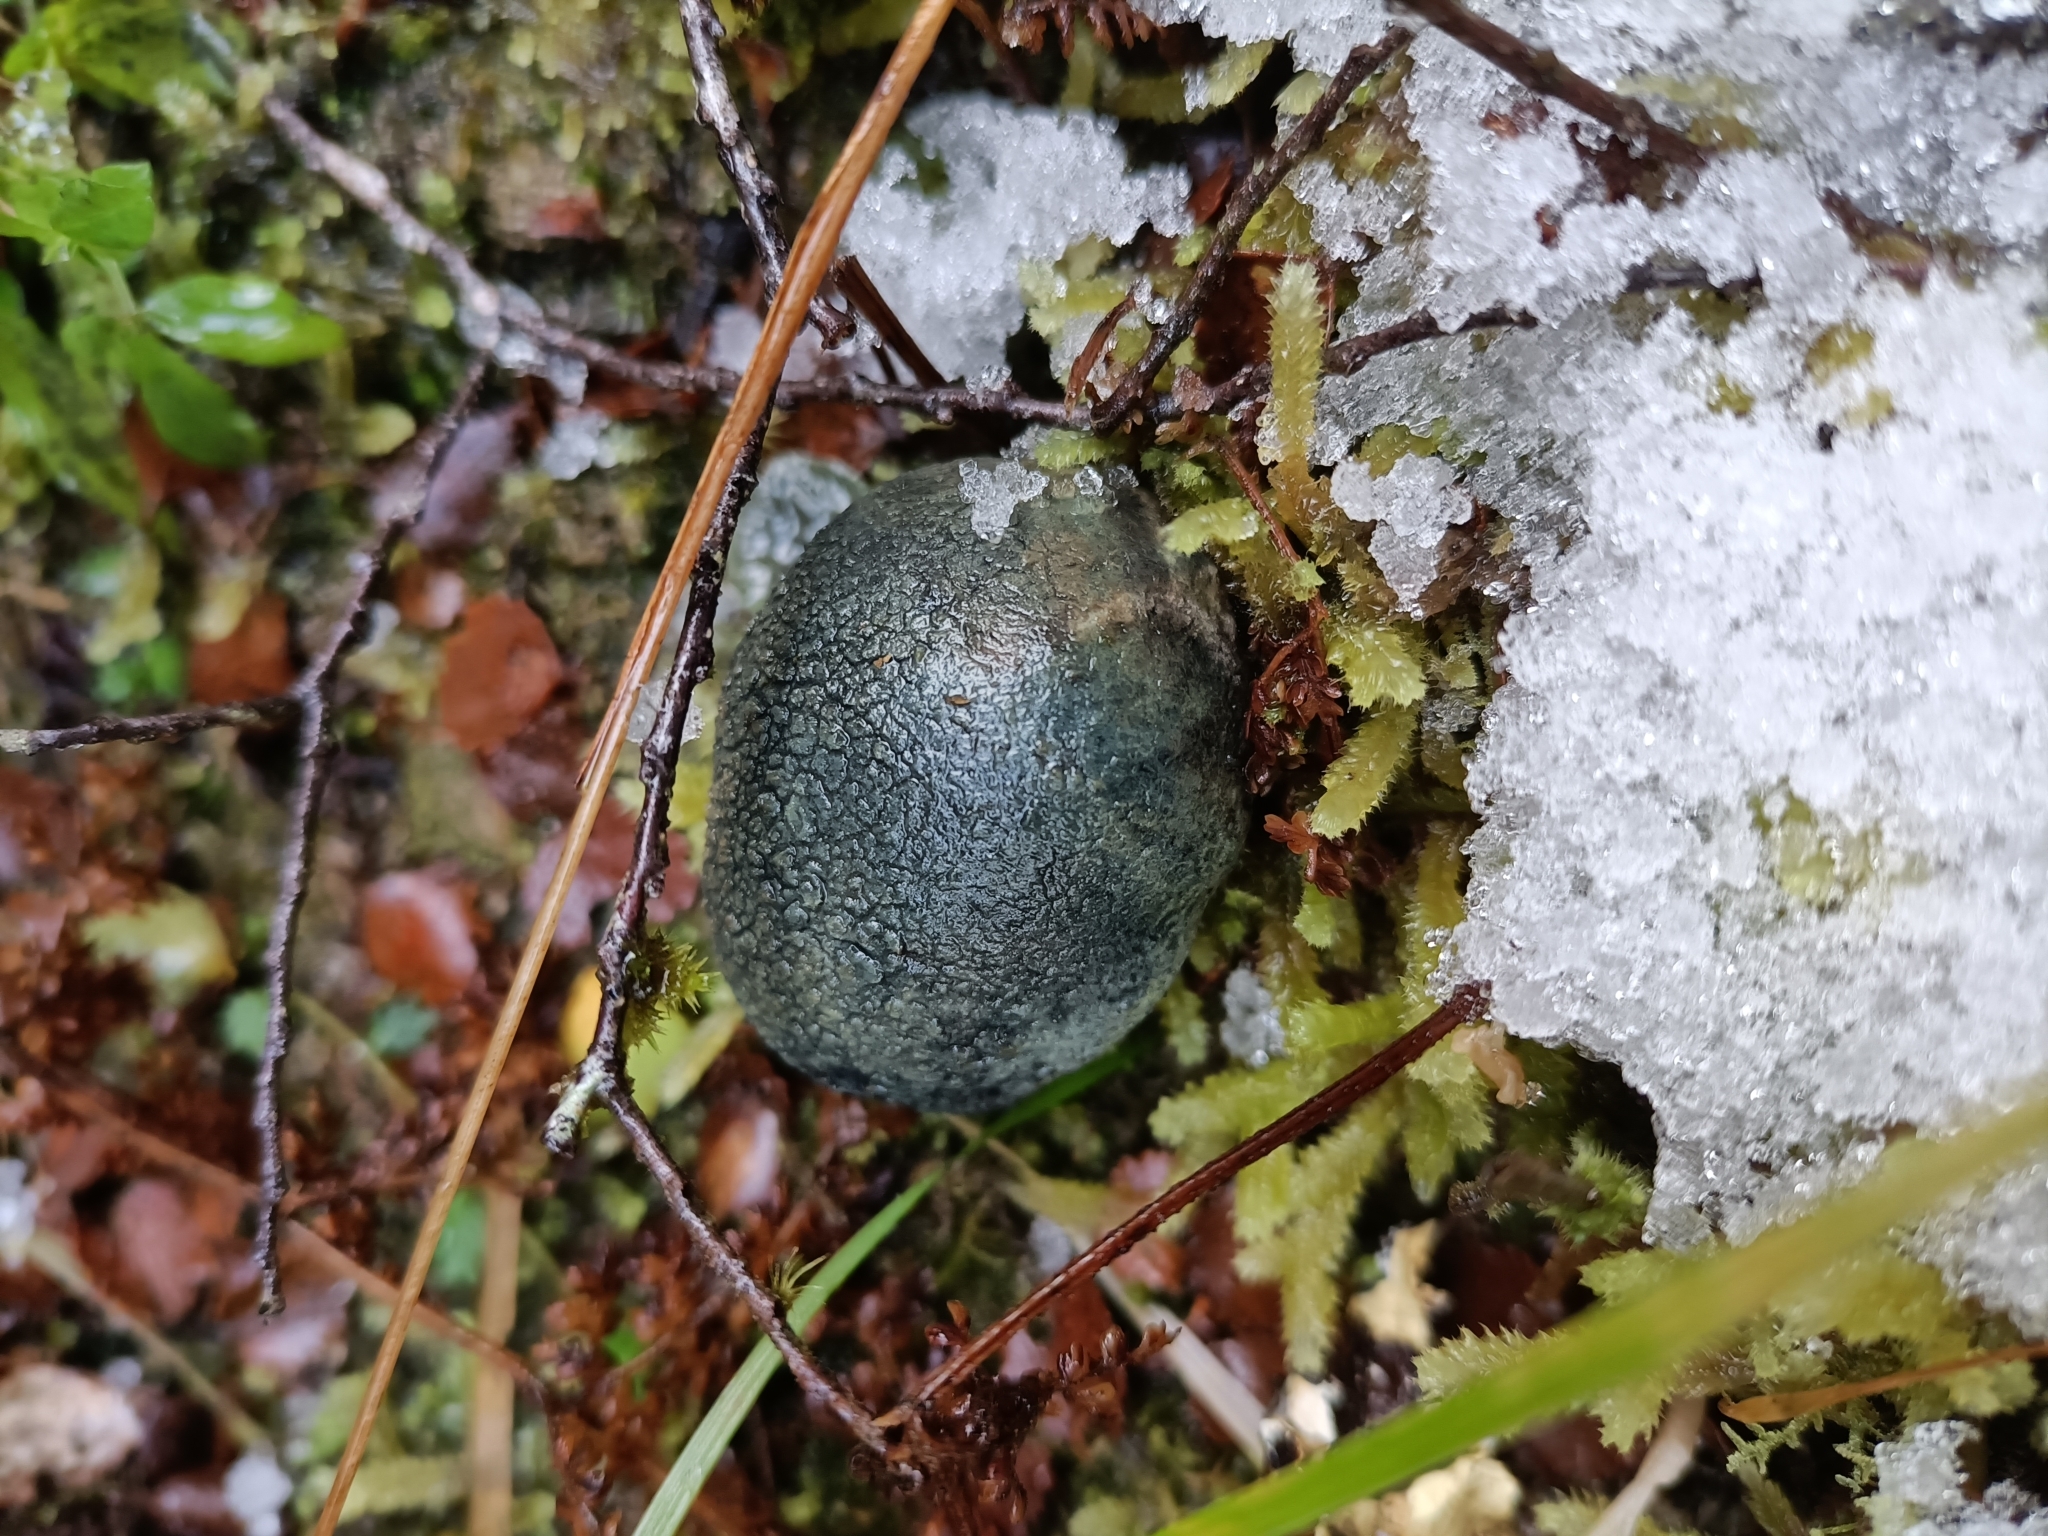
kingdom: Fungi
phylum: Basidiomycota
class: Agaricomycetes
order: Boletales
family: Boletaceae
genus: Leccinum
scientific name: Leccinum pachyderme
